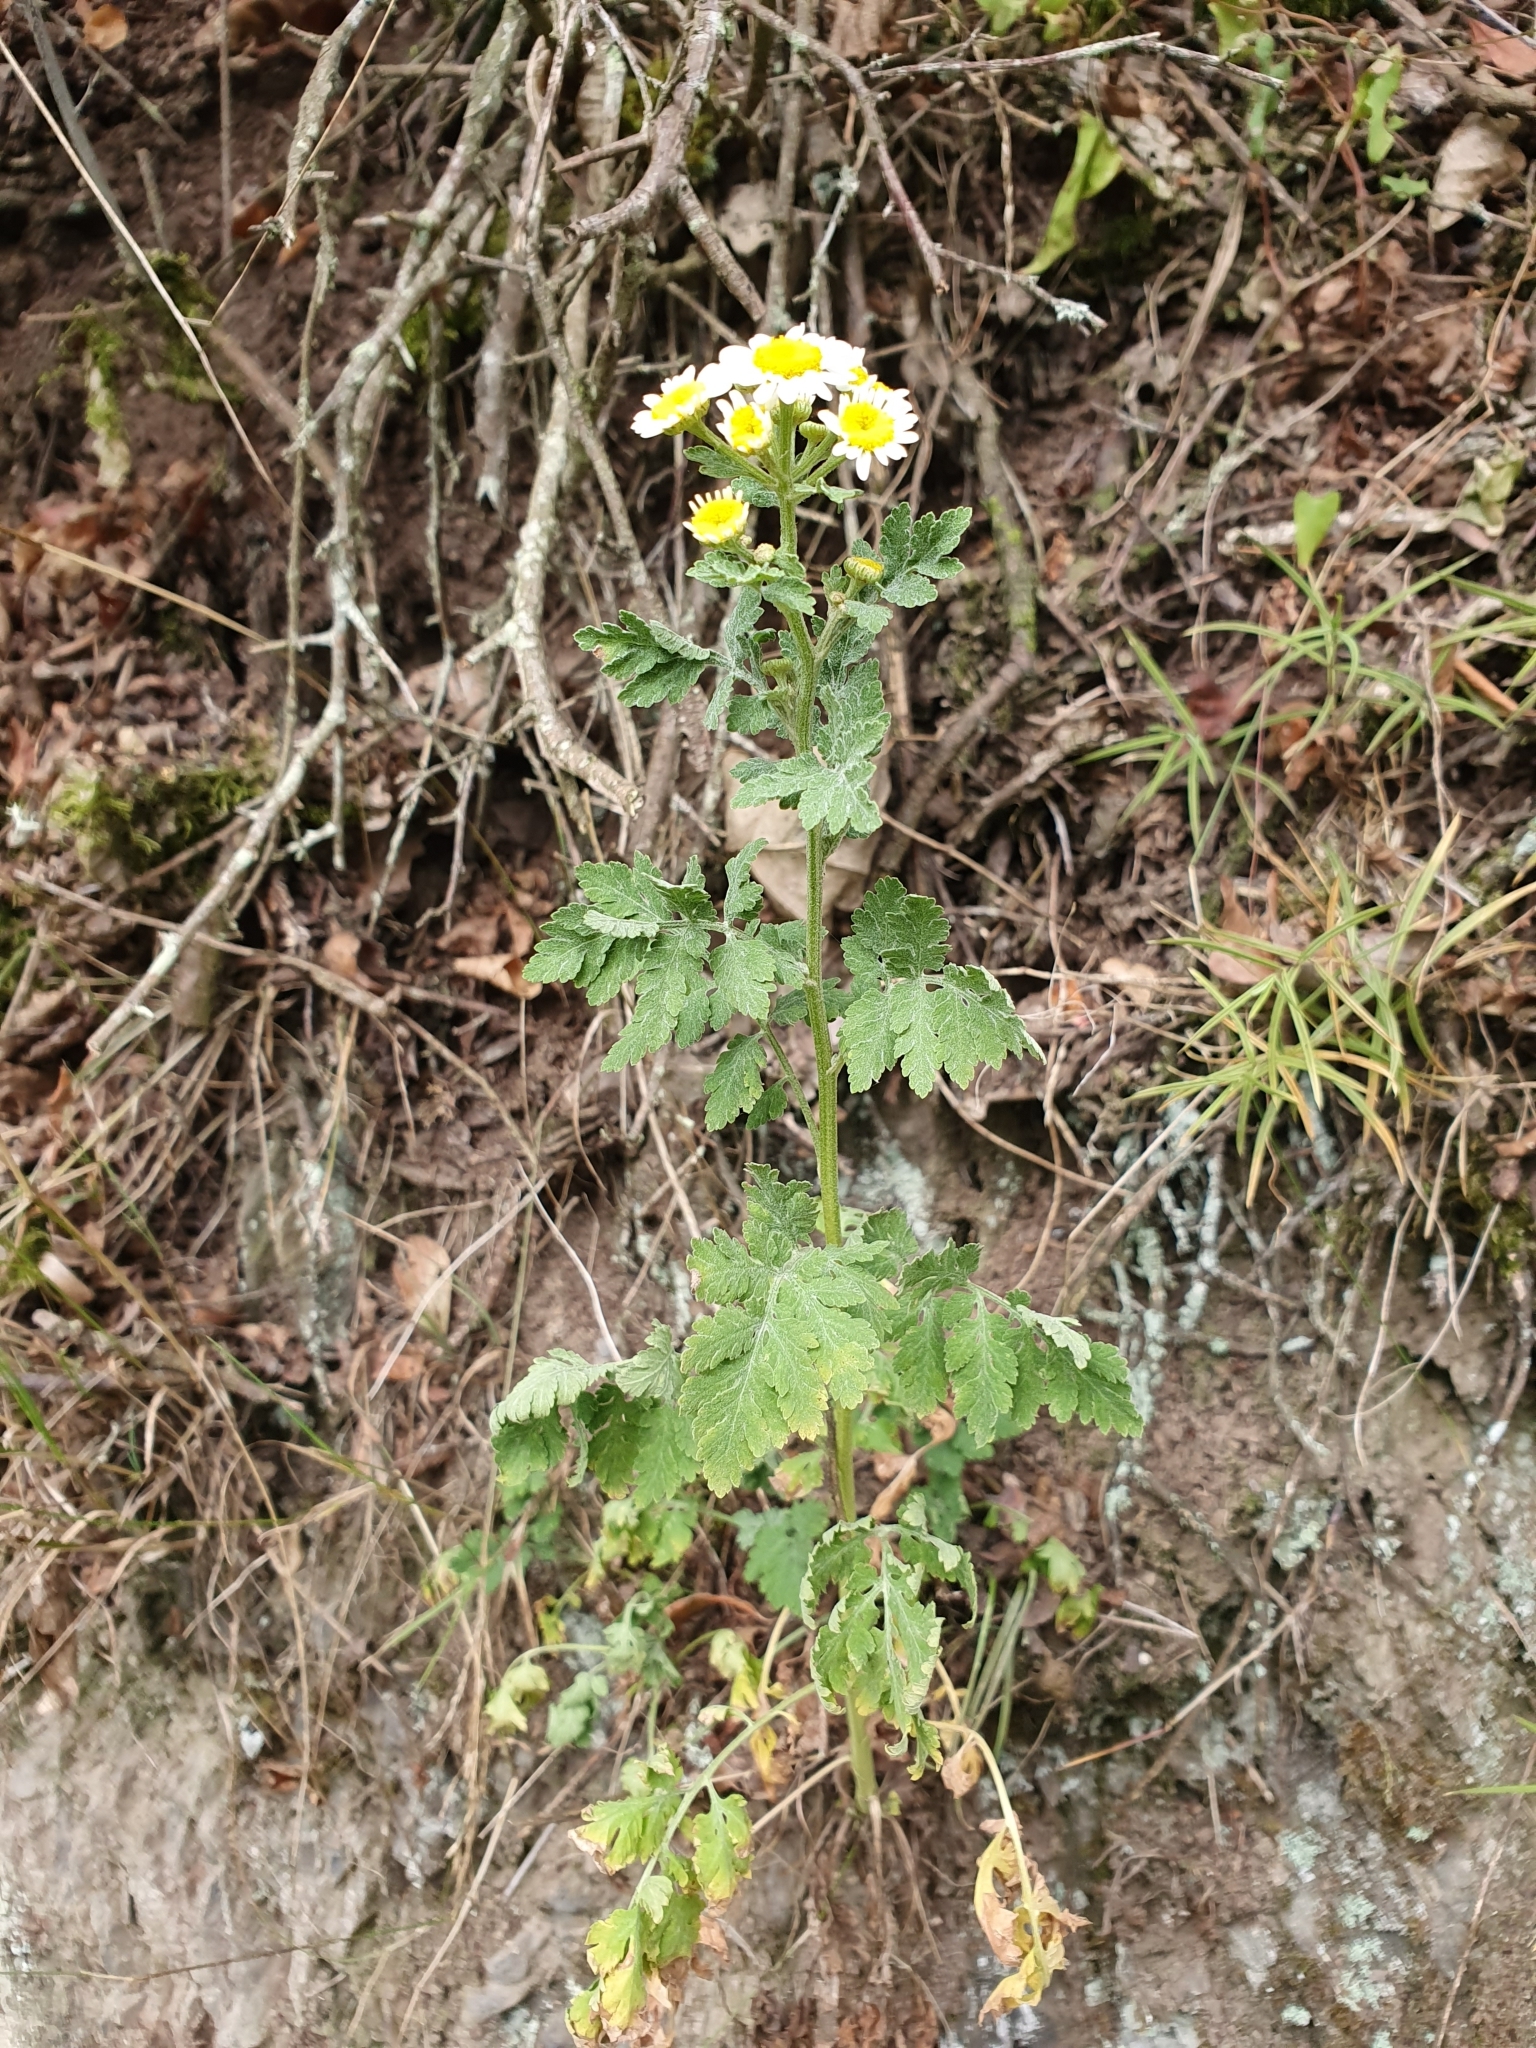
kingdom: Plantae
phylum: Tracheophyta
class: Magnoliopsida
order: Asterales
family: Asteraceae
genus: Tanacetum
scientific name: Tanacetum parthenium
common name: Feverfew
